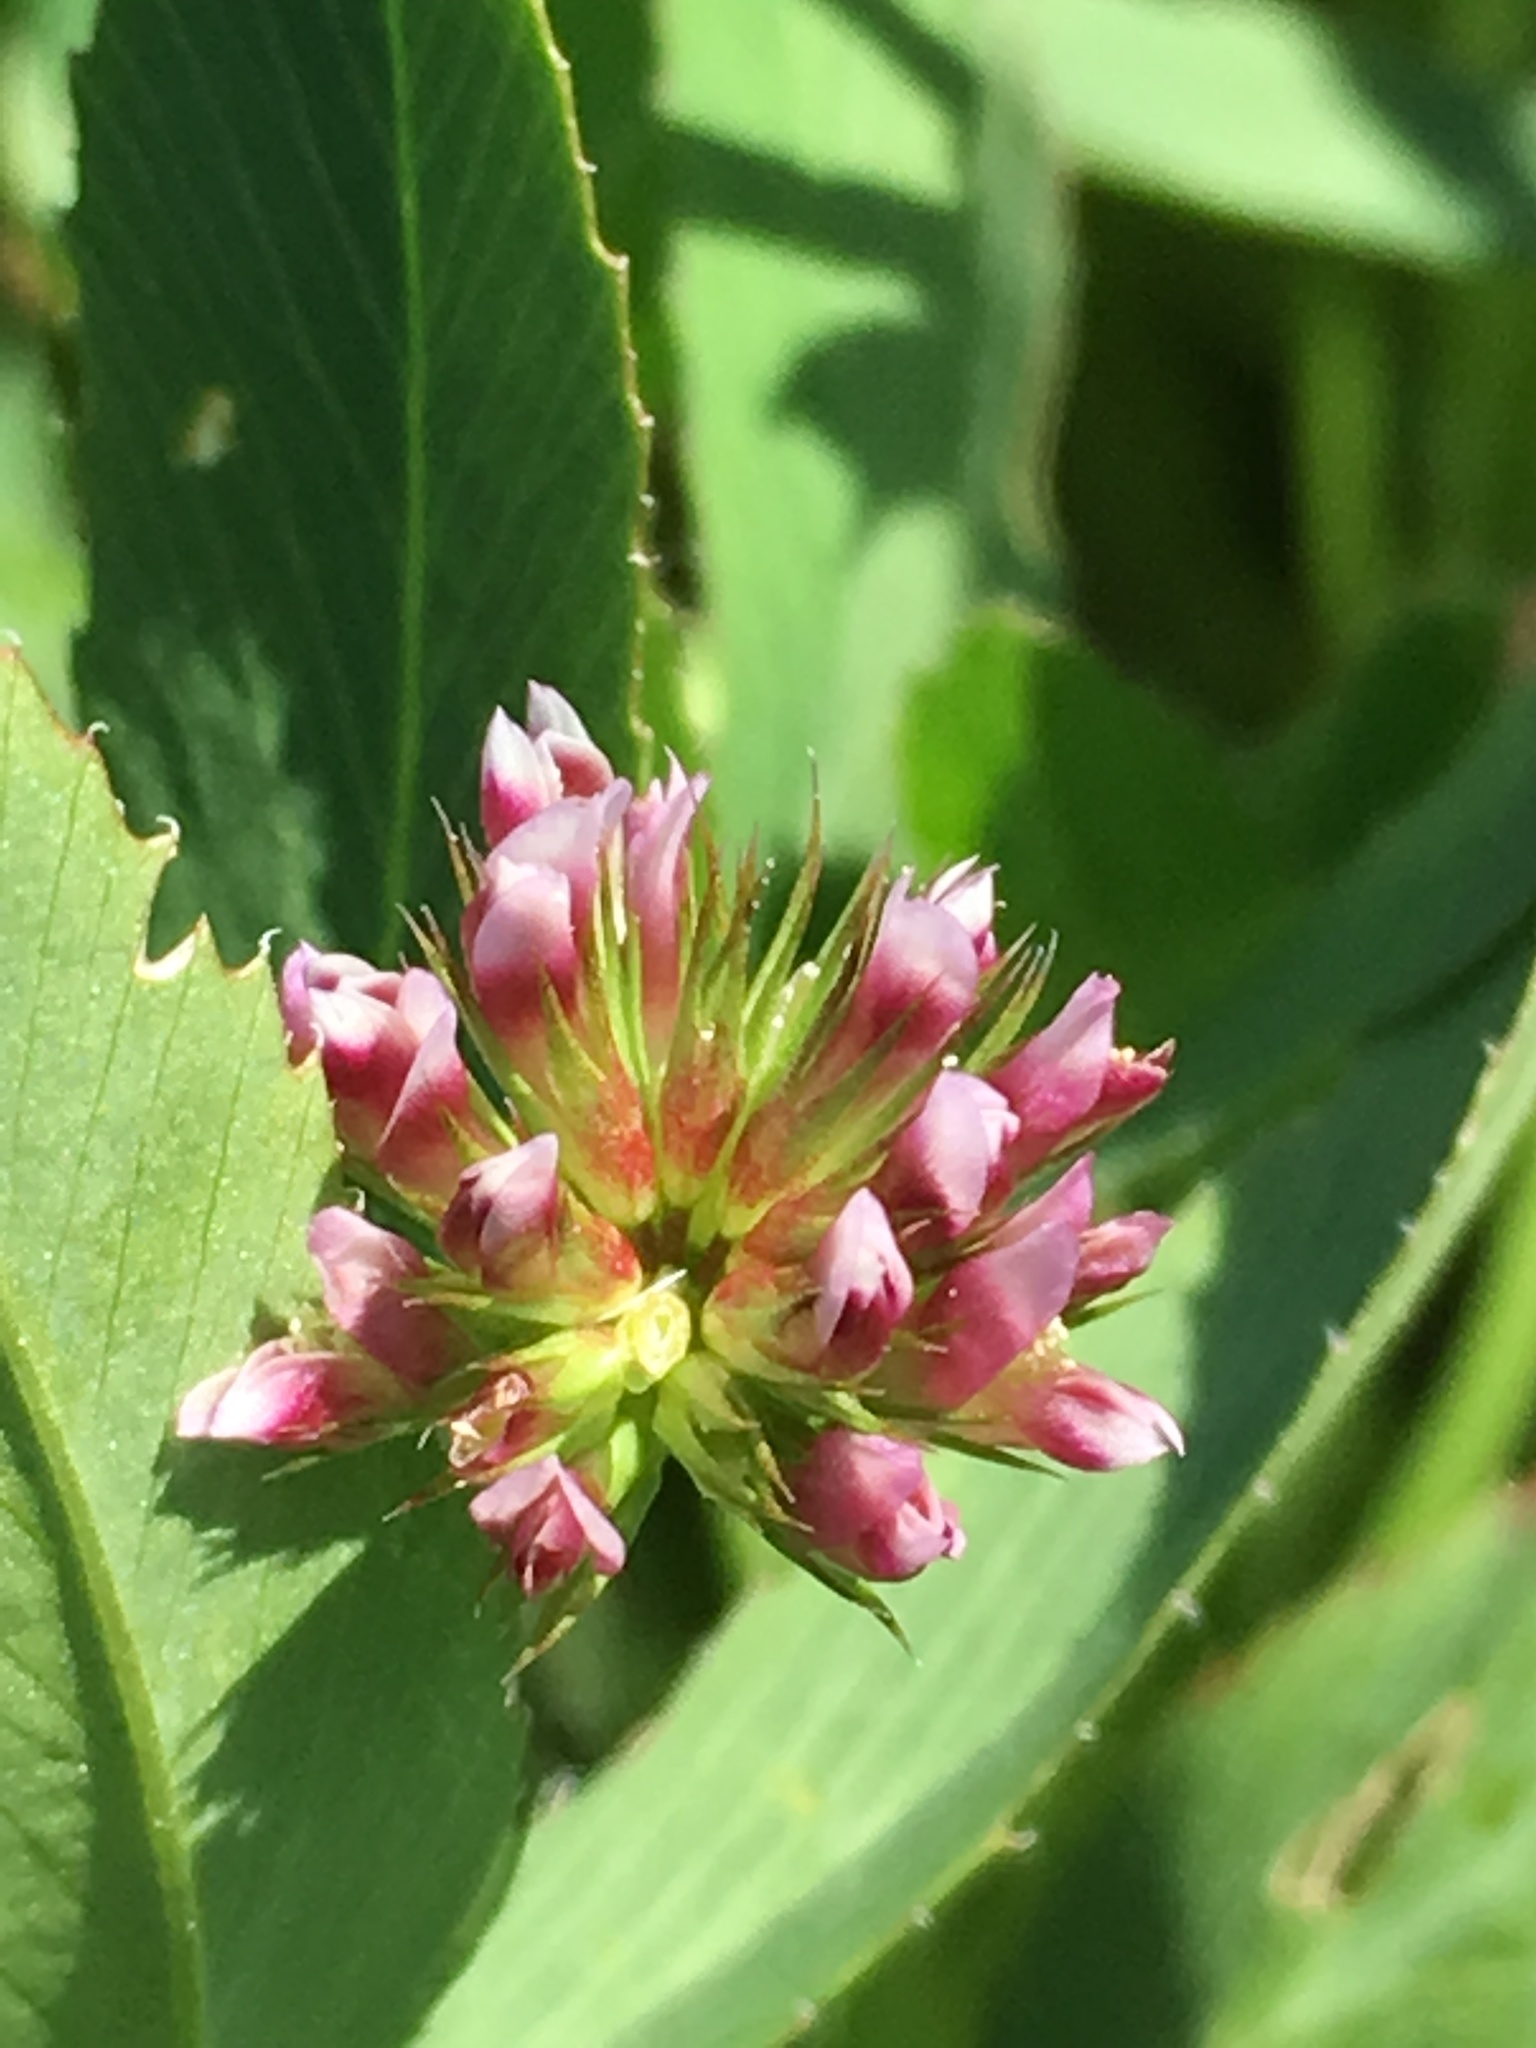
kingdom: Plantae
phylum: Tracheophyta
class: Magnoliopsida
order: Fabales
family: Fabaceae
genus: Trifolium
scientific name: Trifolium palmeri
